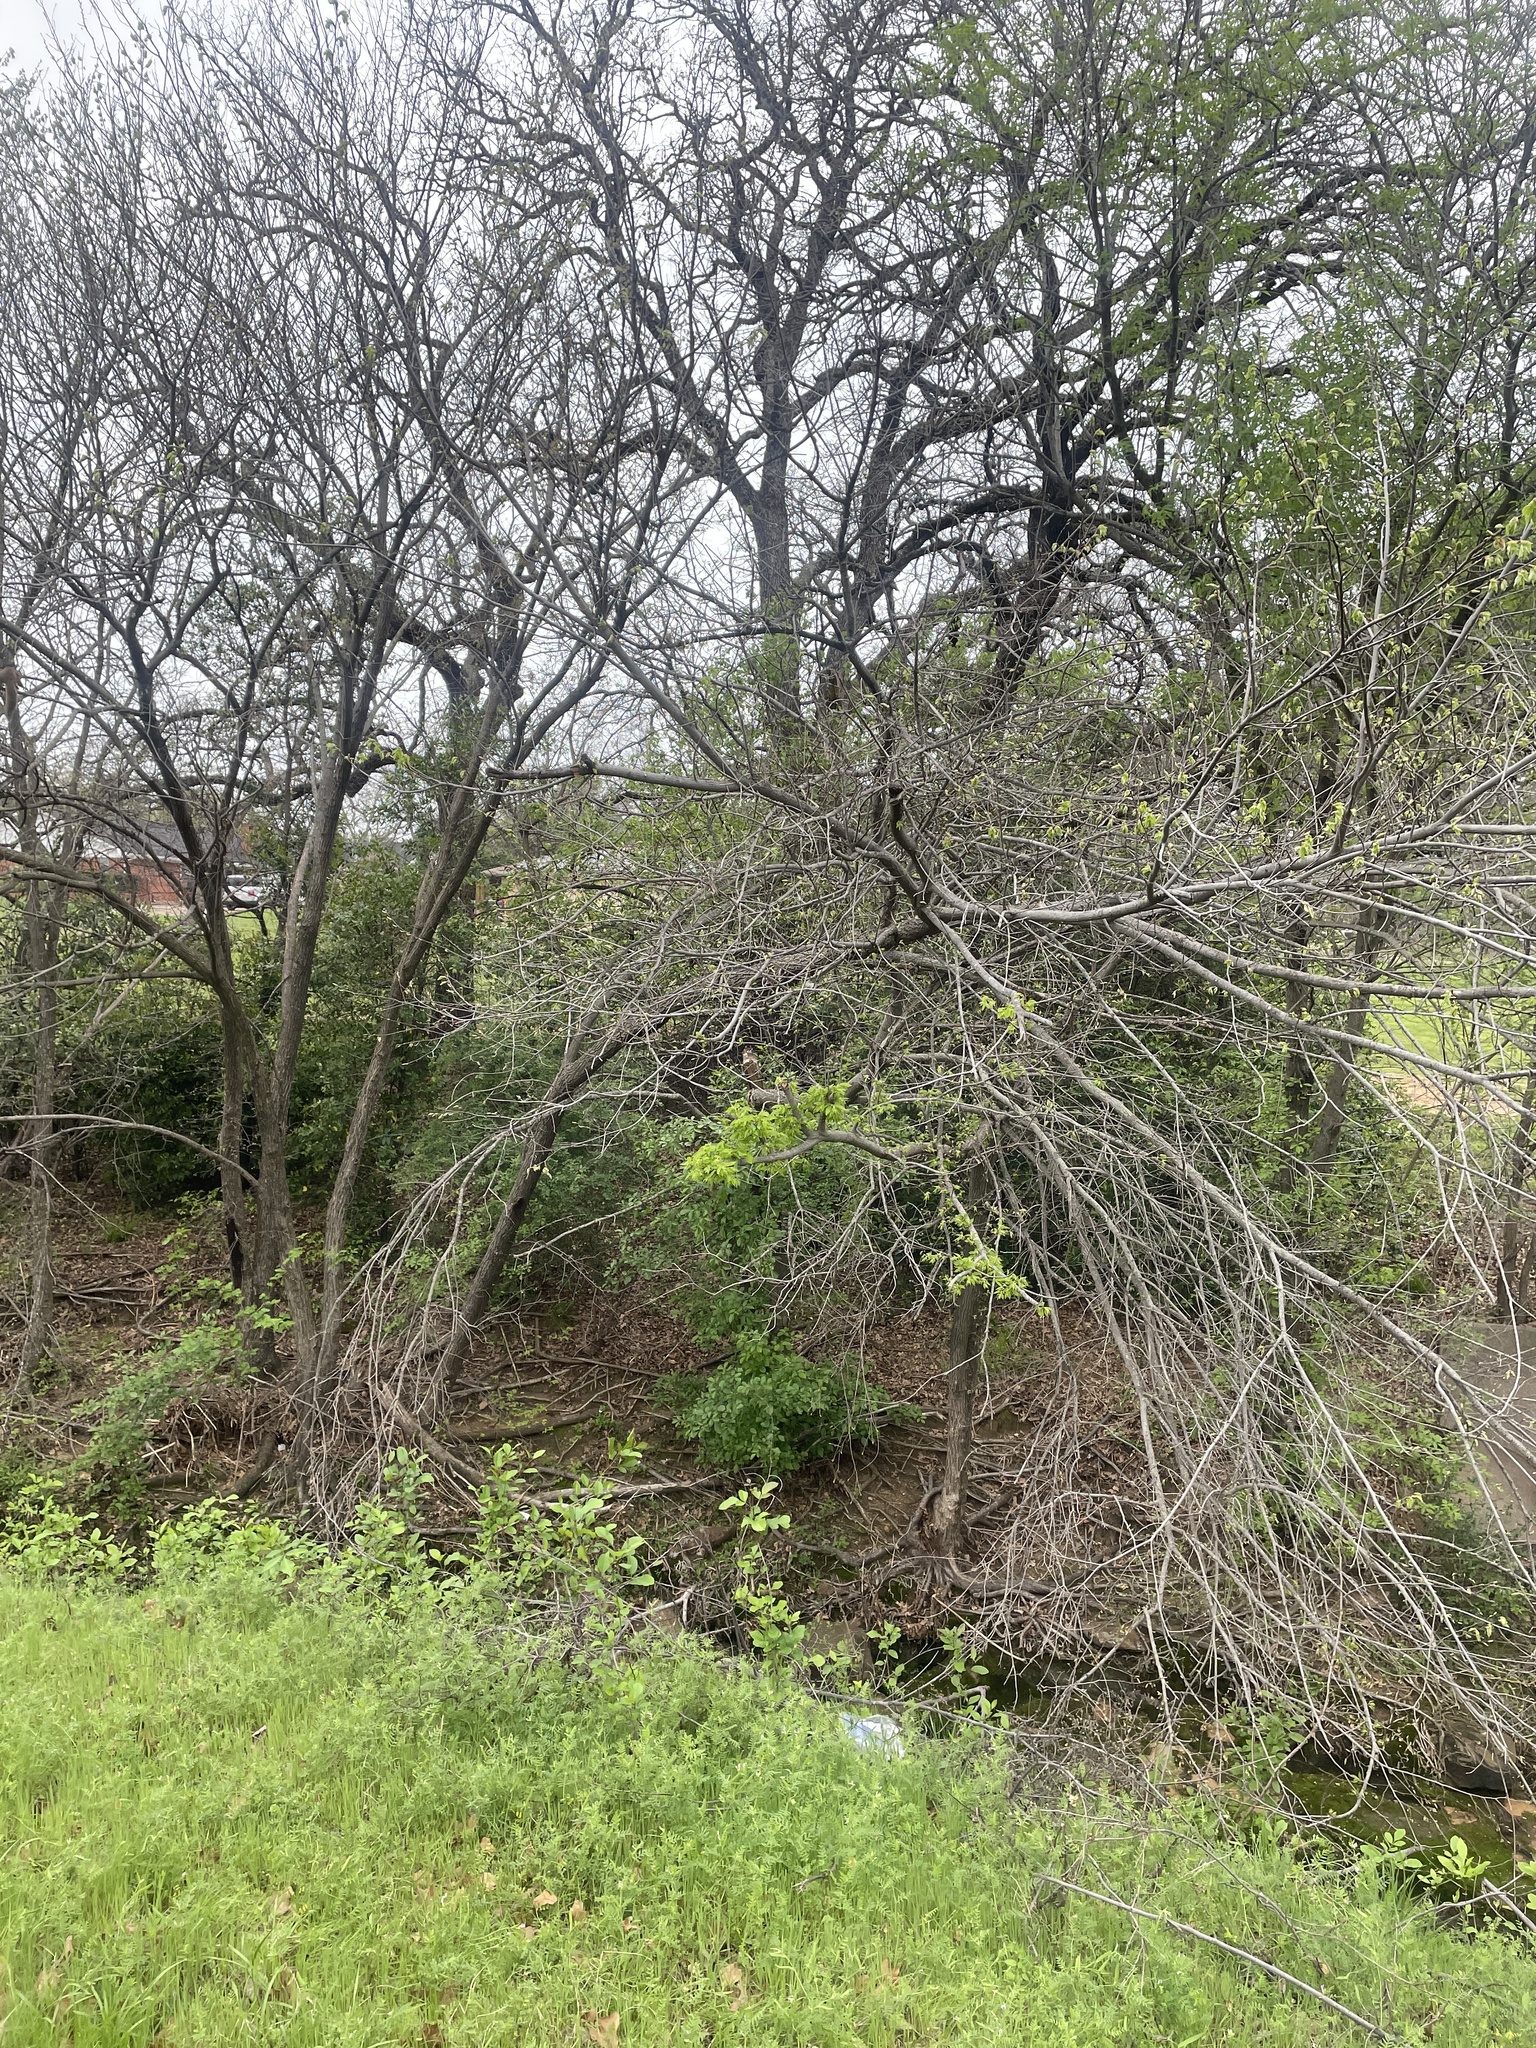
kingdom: Plantae
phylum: Tracheophyta
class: Magnoliopsida
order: Rosales
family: Ulmaceae
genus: Ulmus
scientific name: Ulmus americana
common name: American elm
